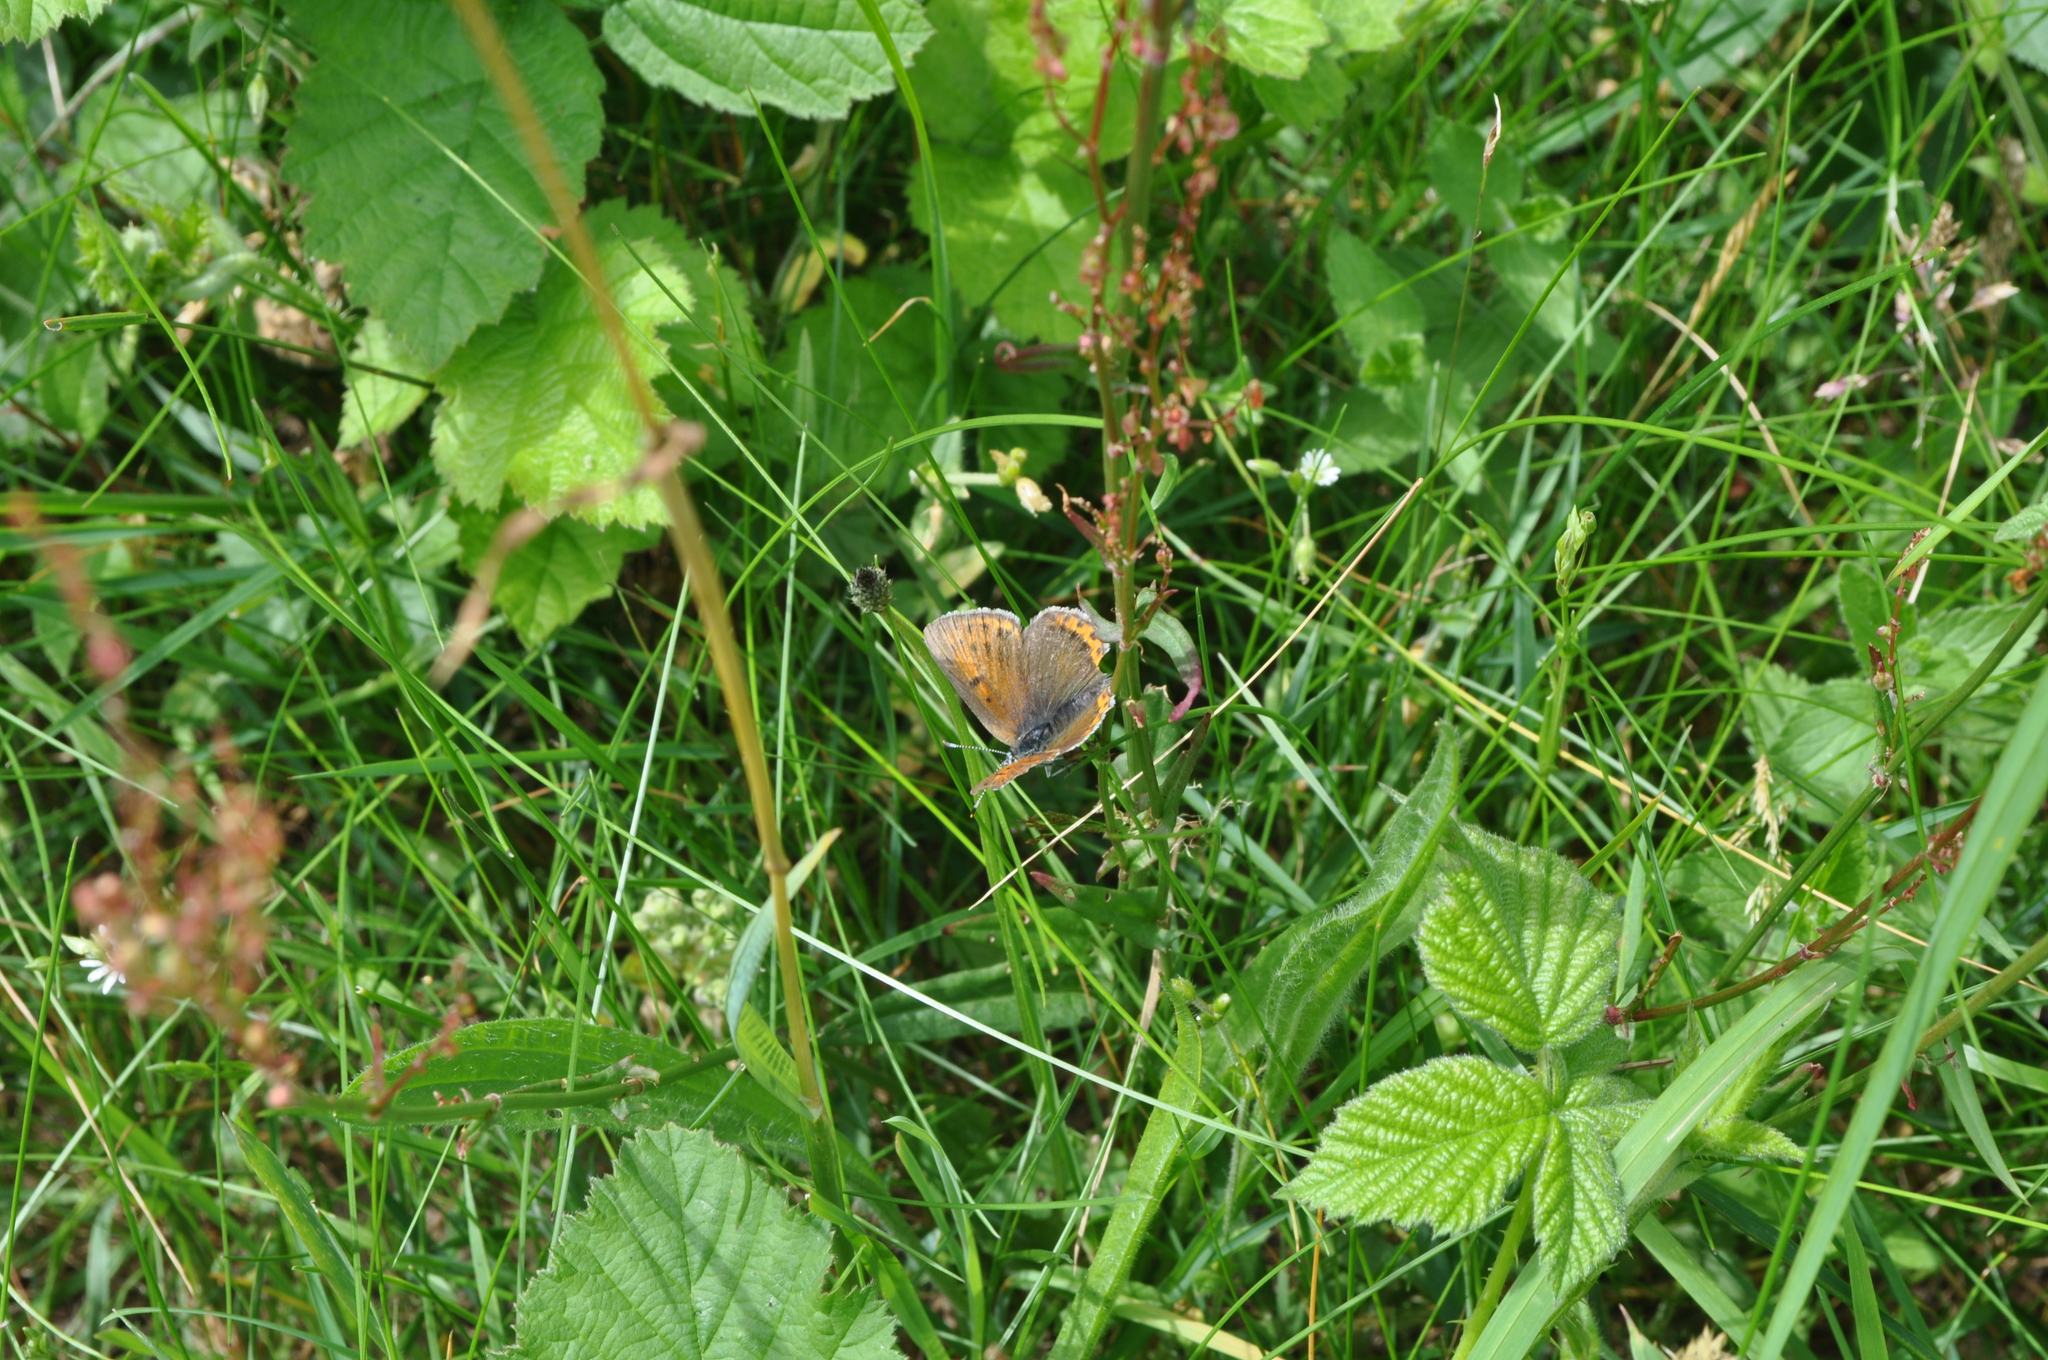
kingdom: Animalia
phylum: Arthropoda
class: Insecta
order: Lepidoptera
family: Lycaenidae
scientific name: Lycaenidae
